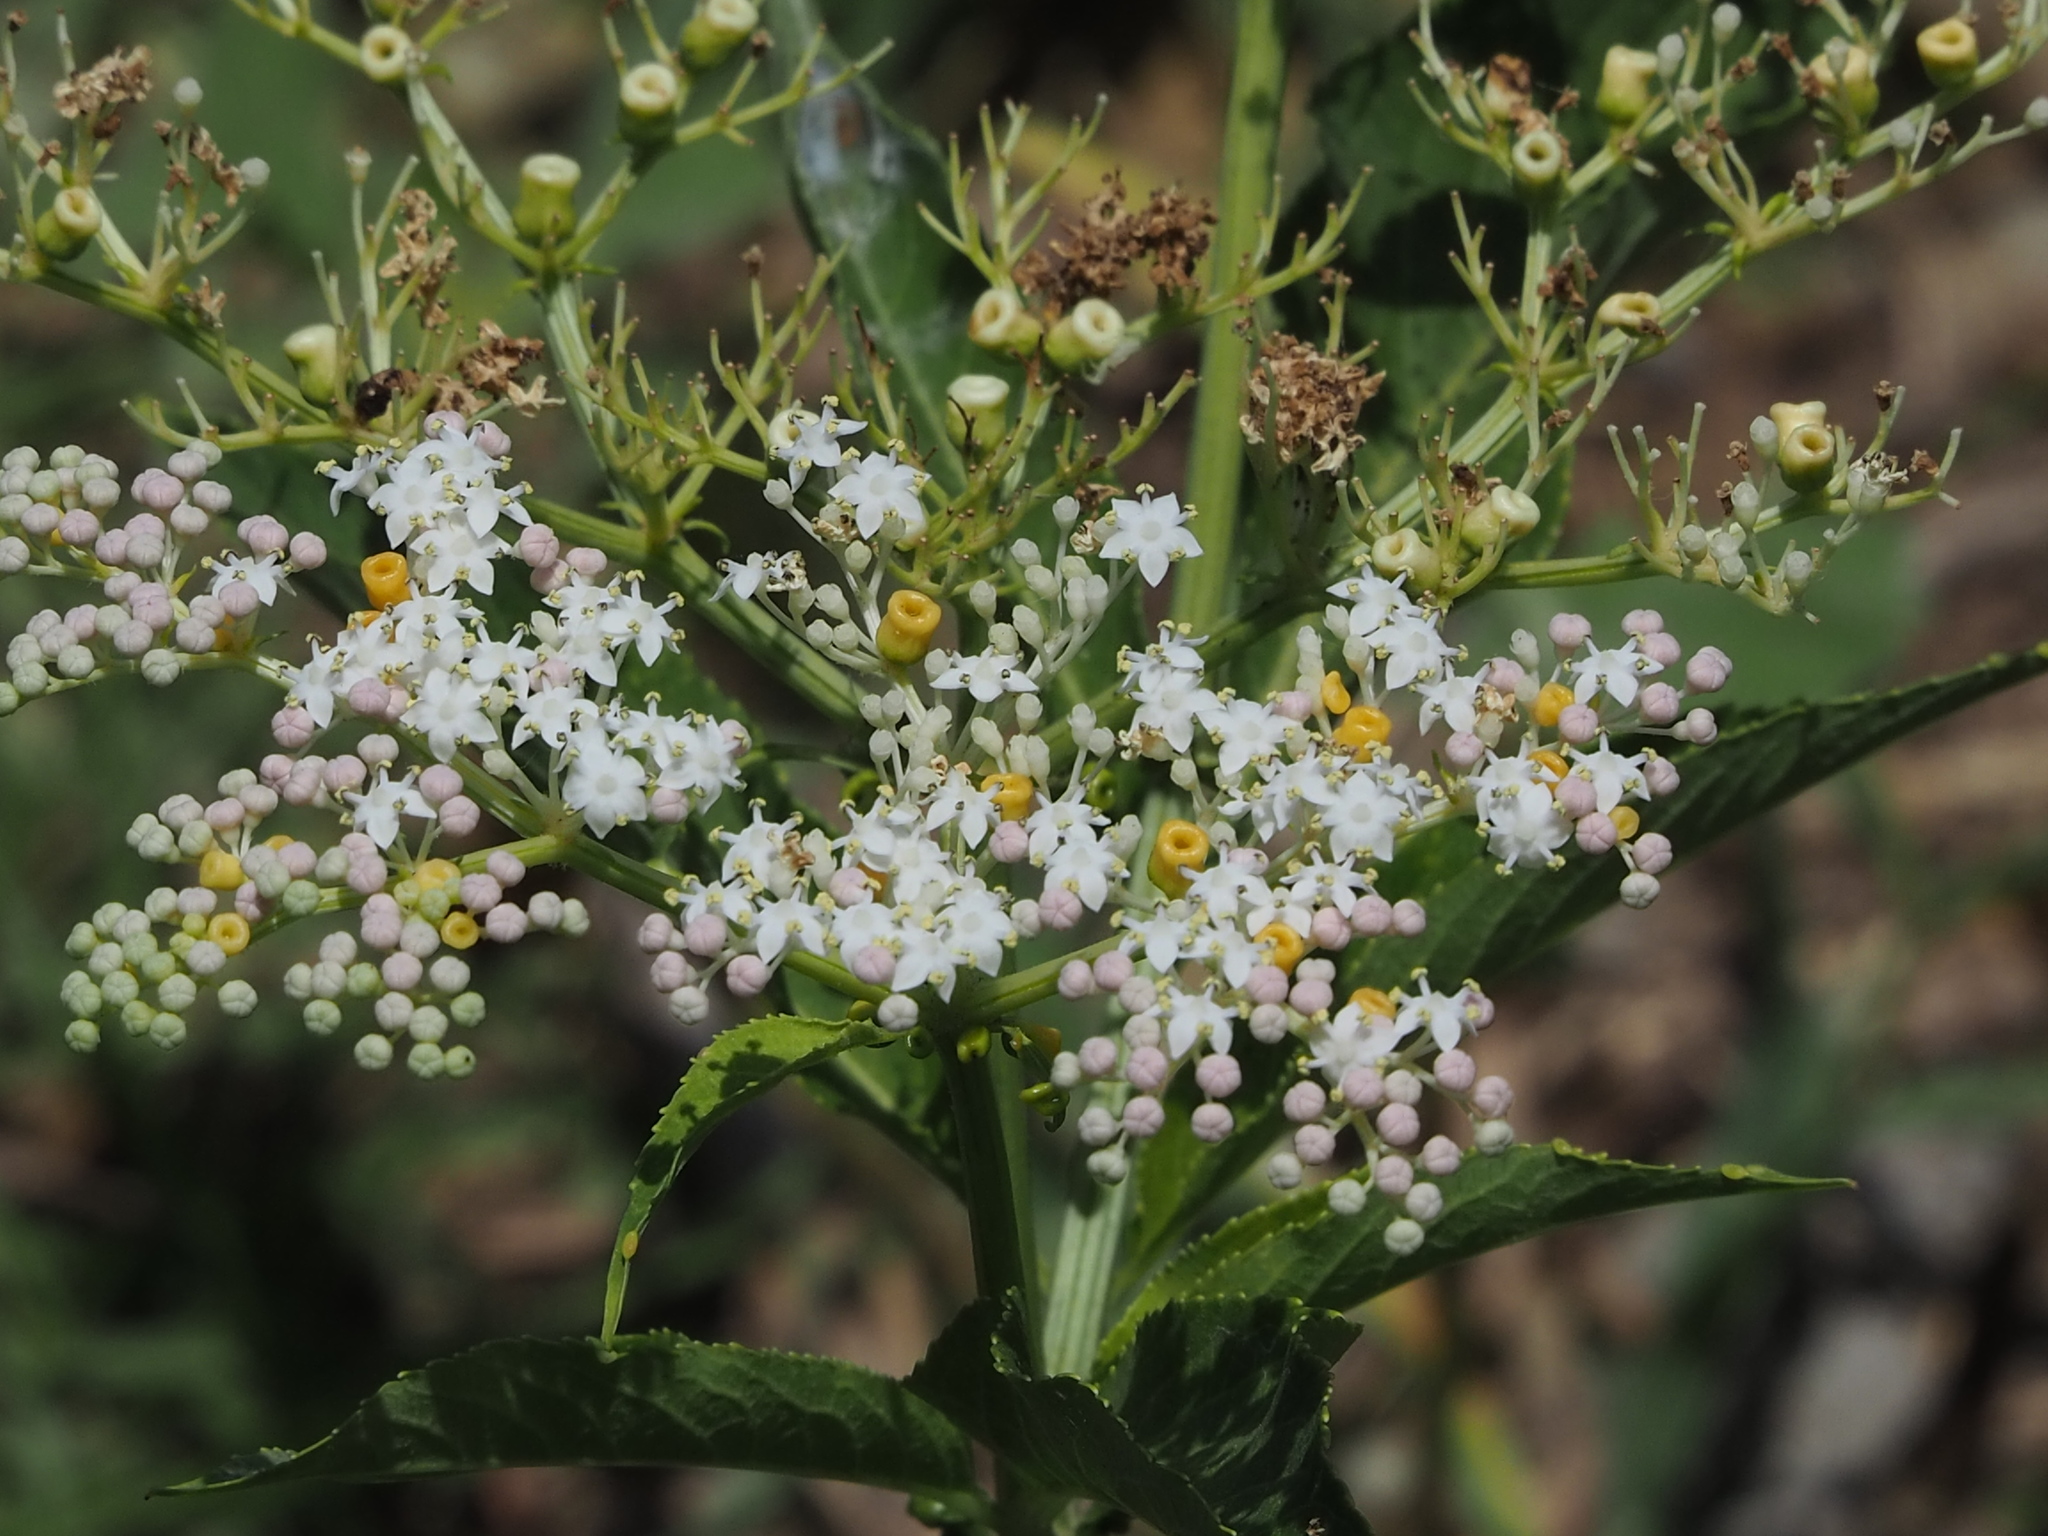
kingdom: Plantae
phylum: Tracheophyta
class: Magnoliopsida
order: Dipsacales
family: Viburnaceae
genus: Sambucus
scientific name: Sambucus javanica
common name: Chinese elder
